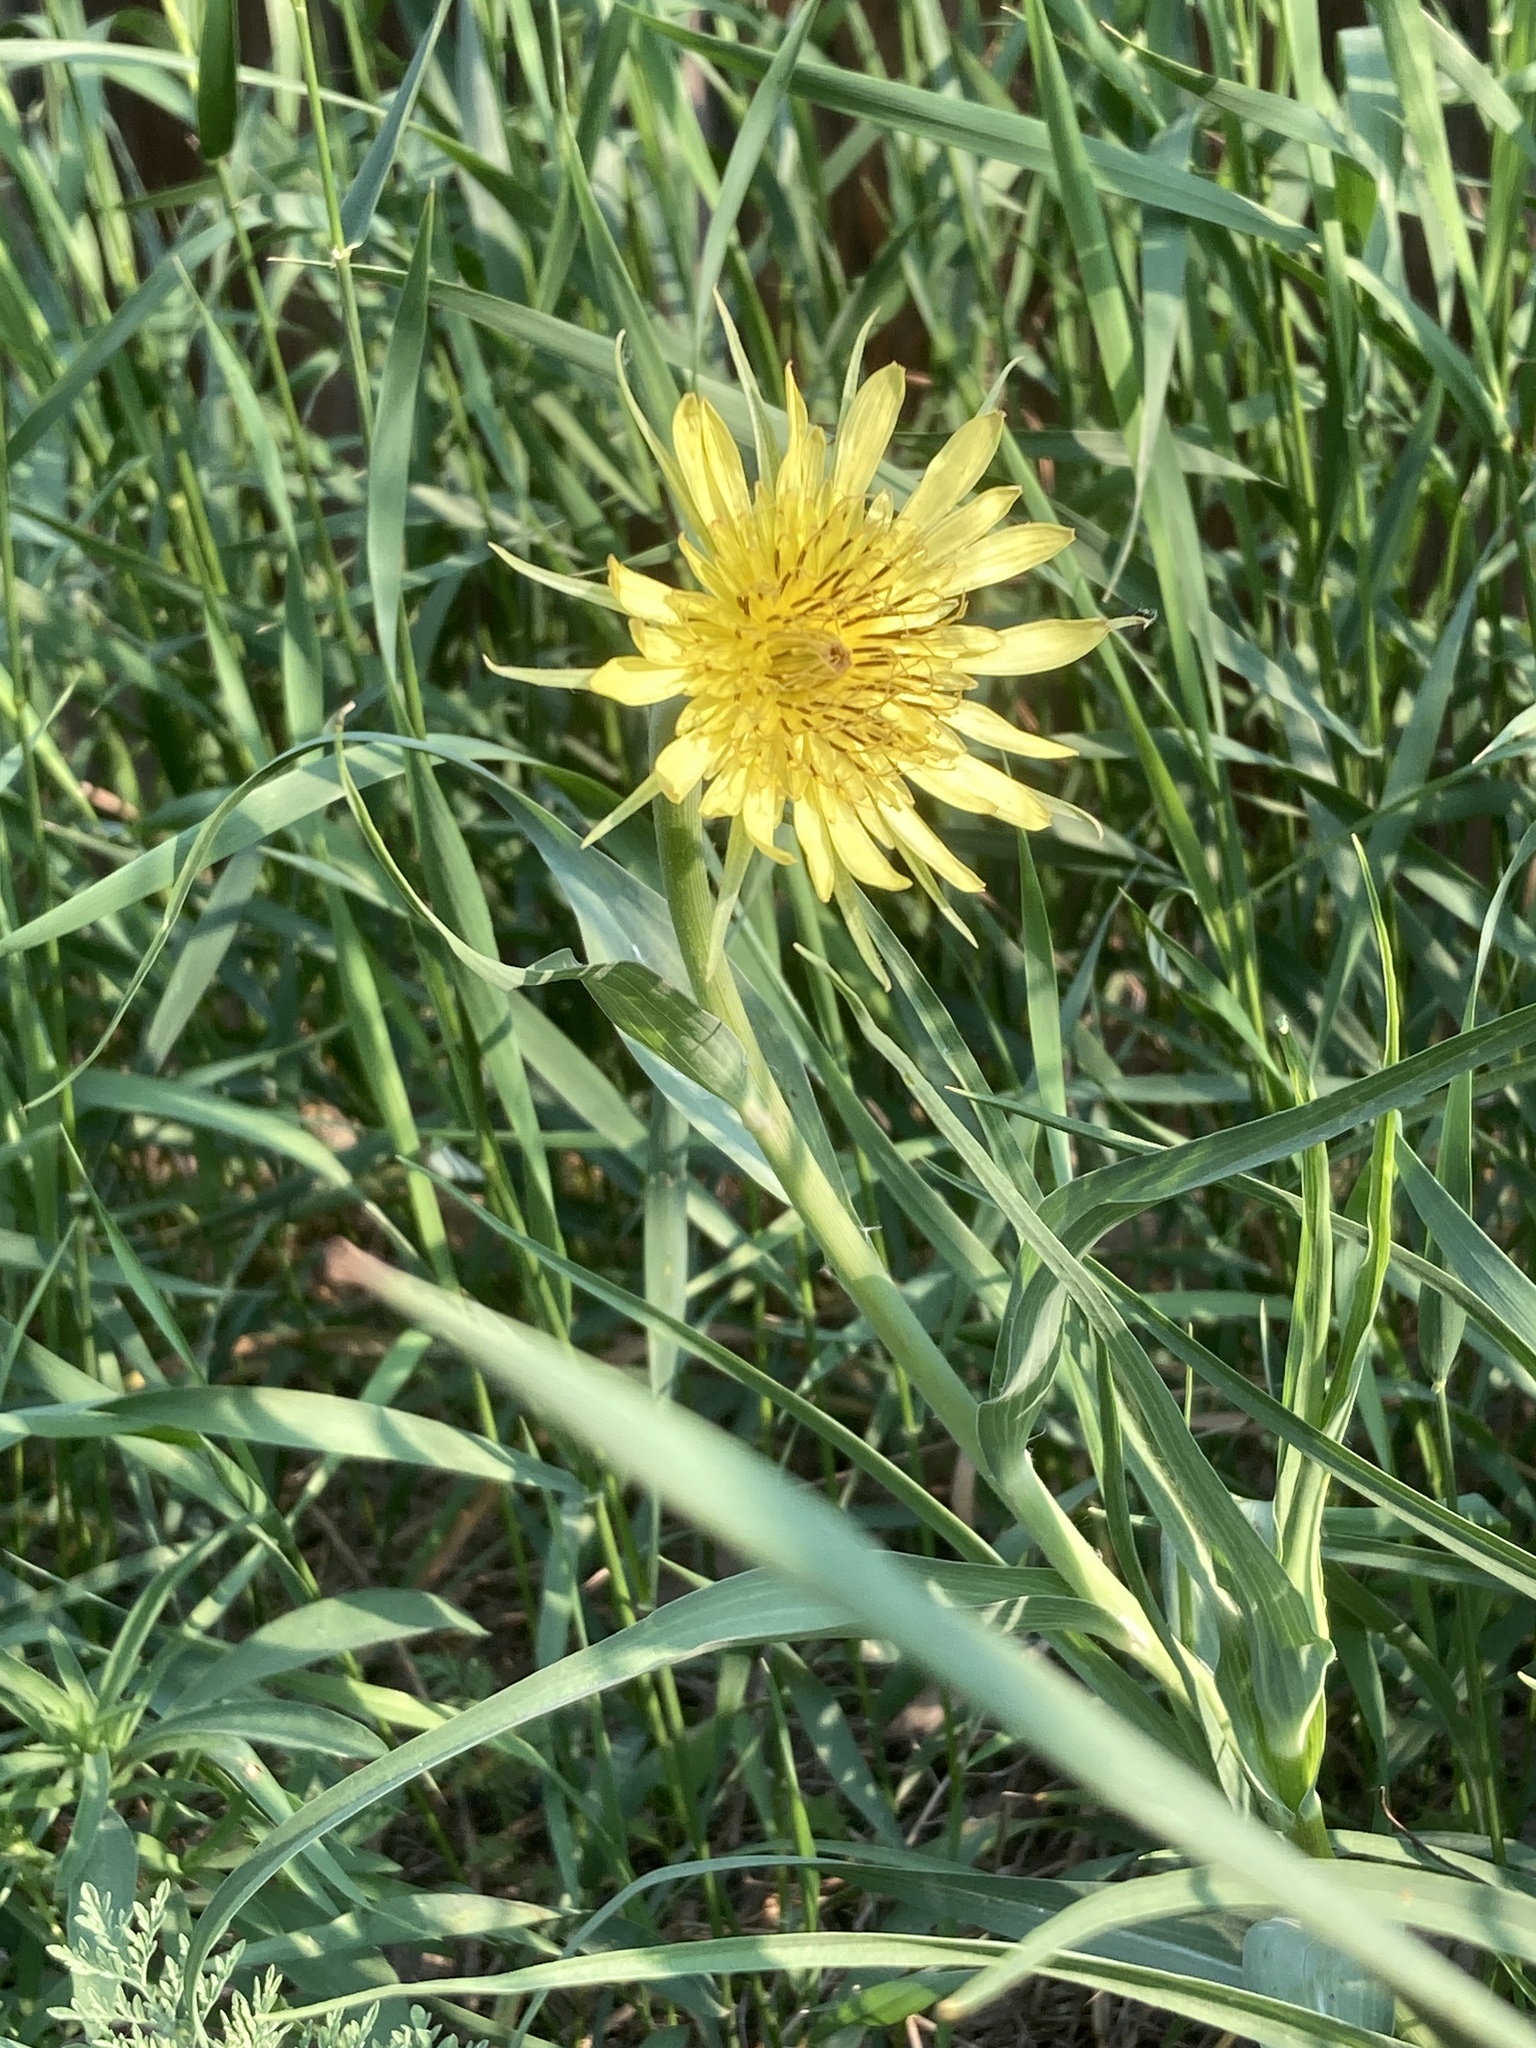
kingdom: Plantae
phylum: Tracheophyta
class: Magnoliopsida
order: Asterales
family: Asteraceae
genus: Tragopogon
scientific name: Tragopogon dubius
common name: Yellow salsify
